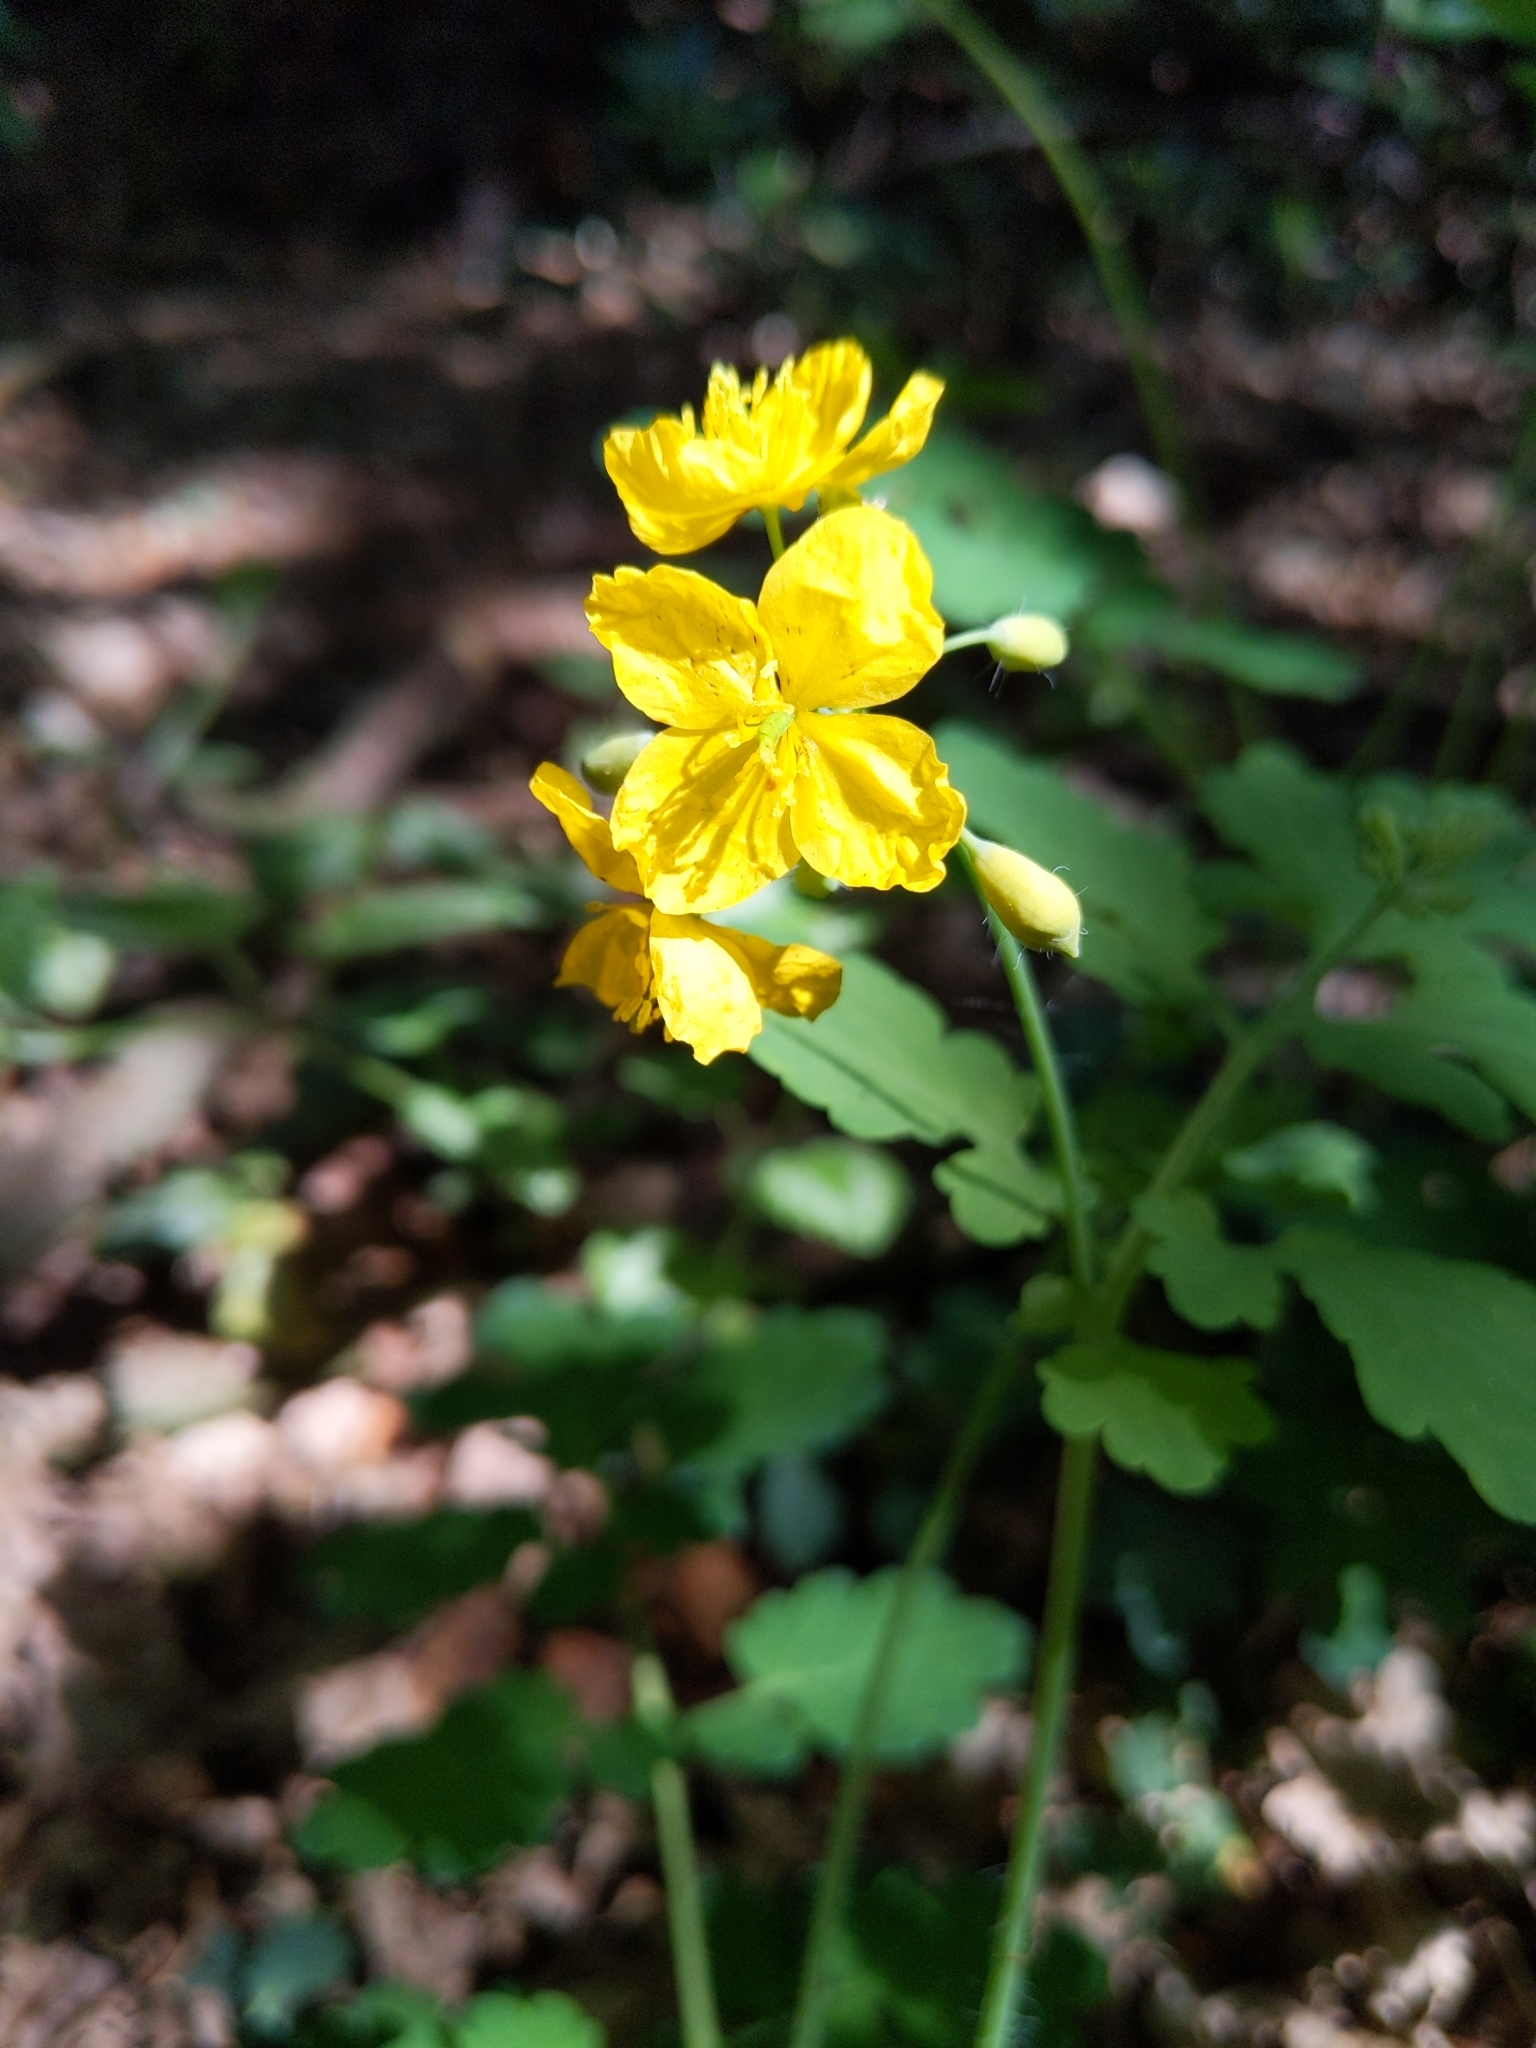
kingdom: Plantae
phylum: Tracheophyta
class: Magnoliopsida
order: Ranunculales
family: Papaveraceae
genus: Chelidonium
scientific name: Chelidonium majus
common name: Greater celandine
